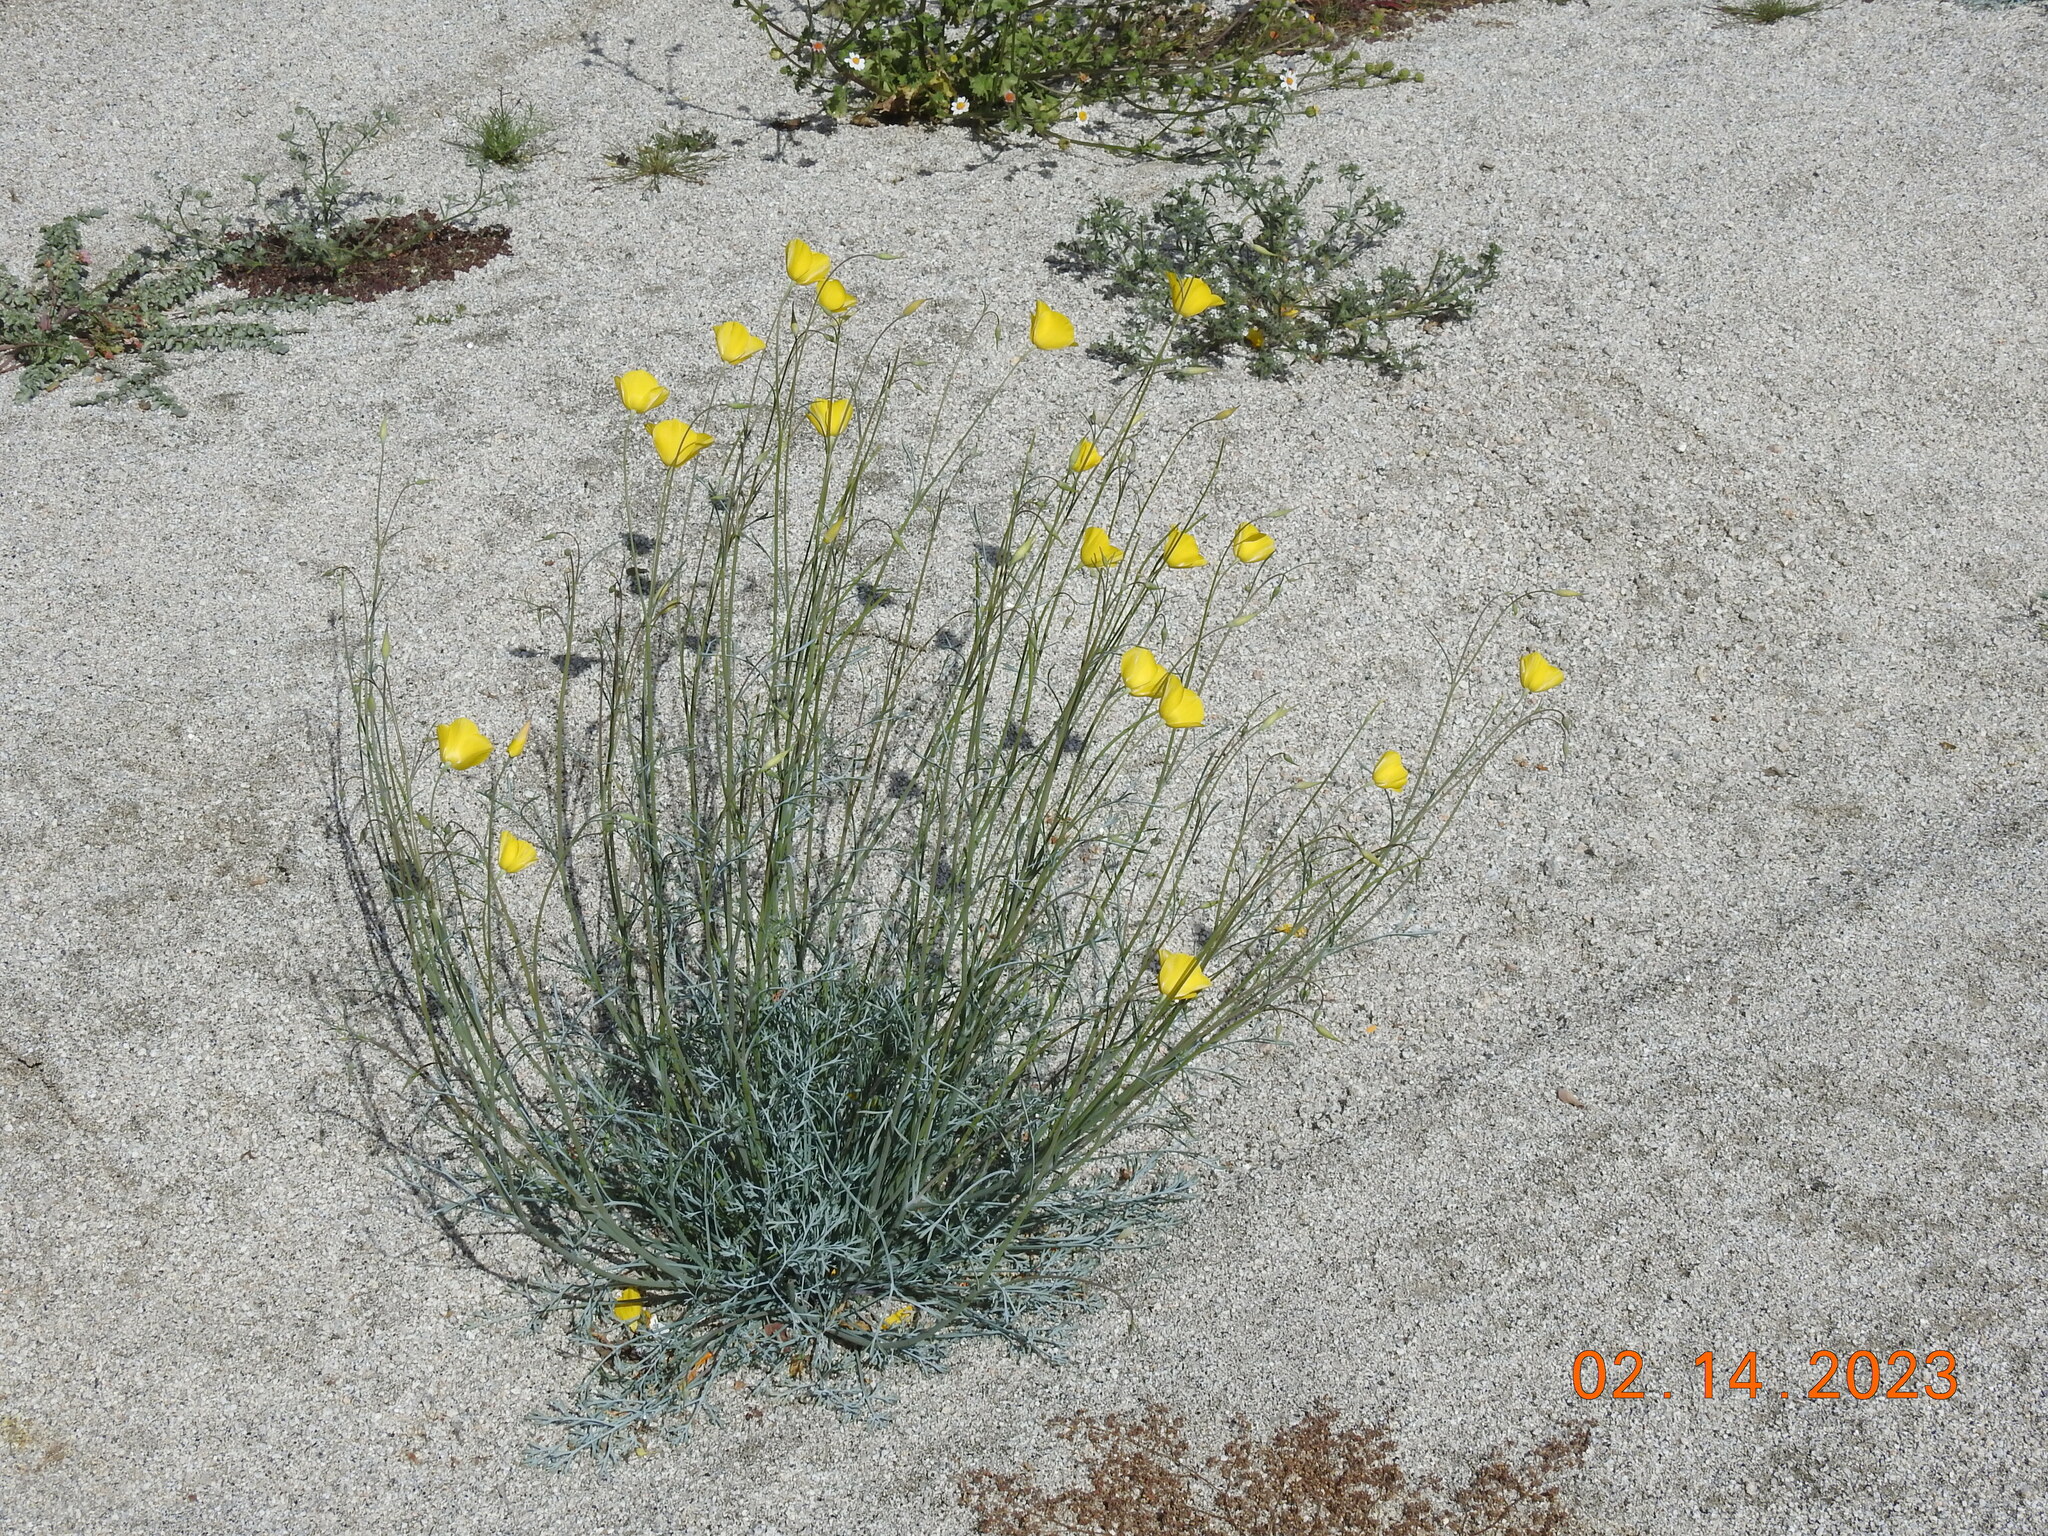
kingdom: Plantae
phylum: Tracheophyta
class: Magnoliopsida
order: Ranunculales
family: Papaveraceae
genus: Eschscholzia
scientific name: Eschscholzia parishii
